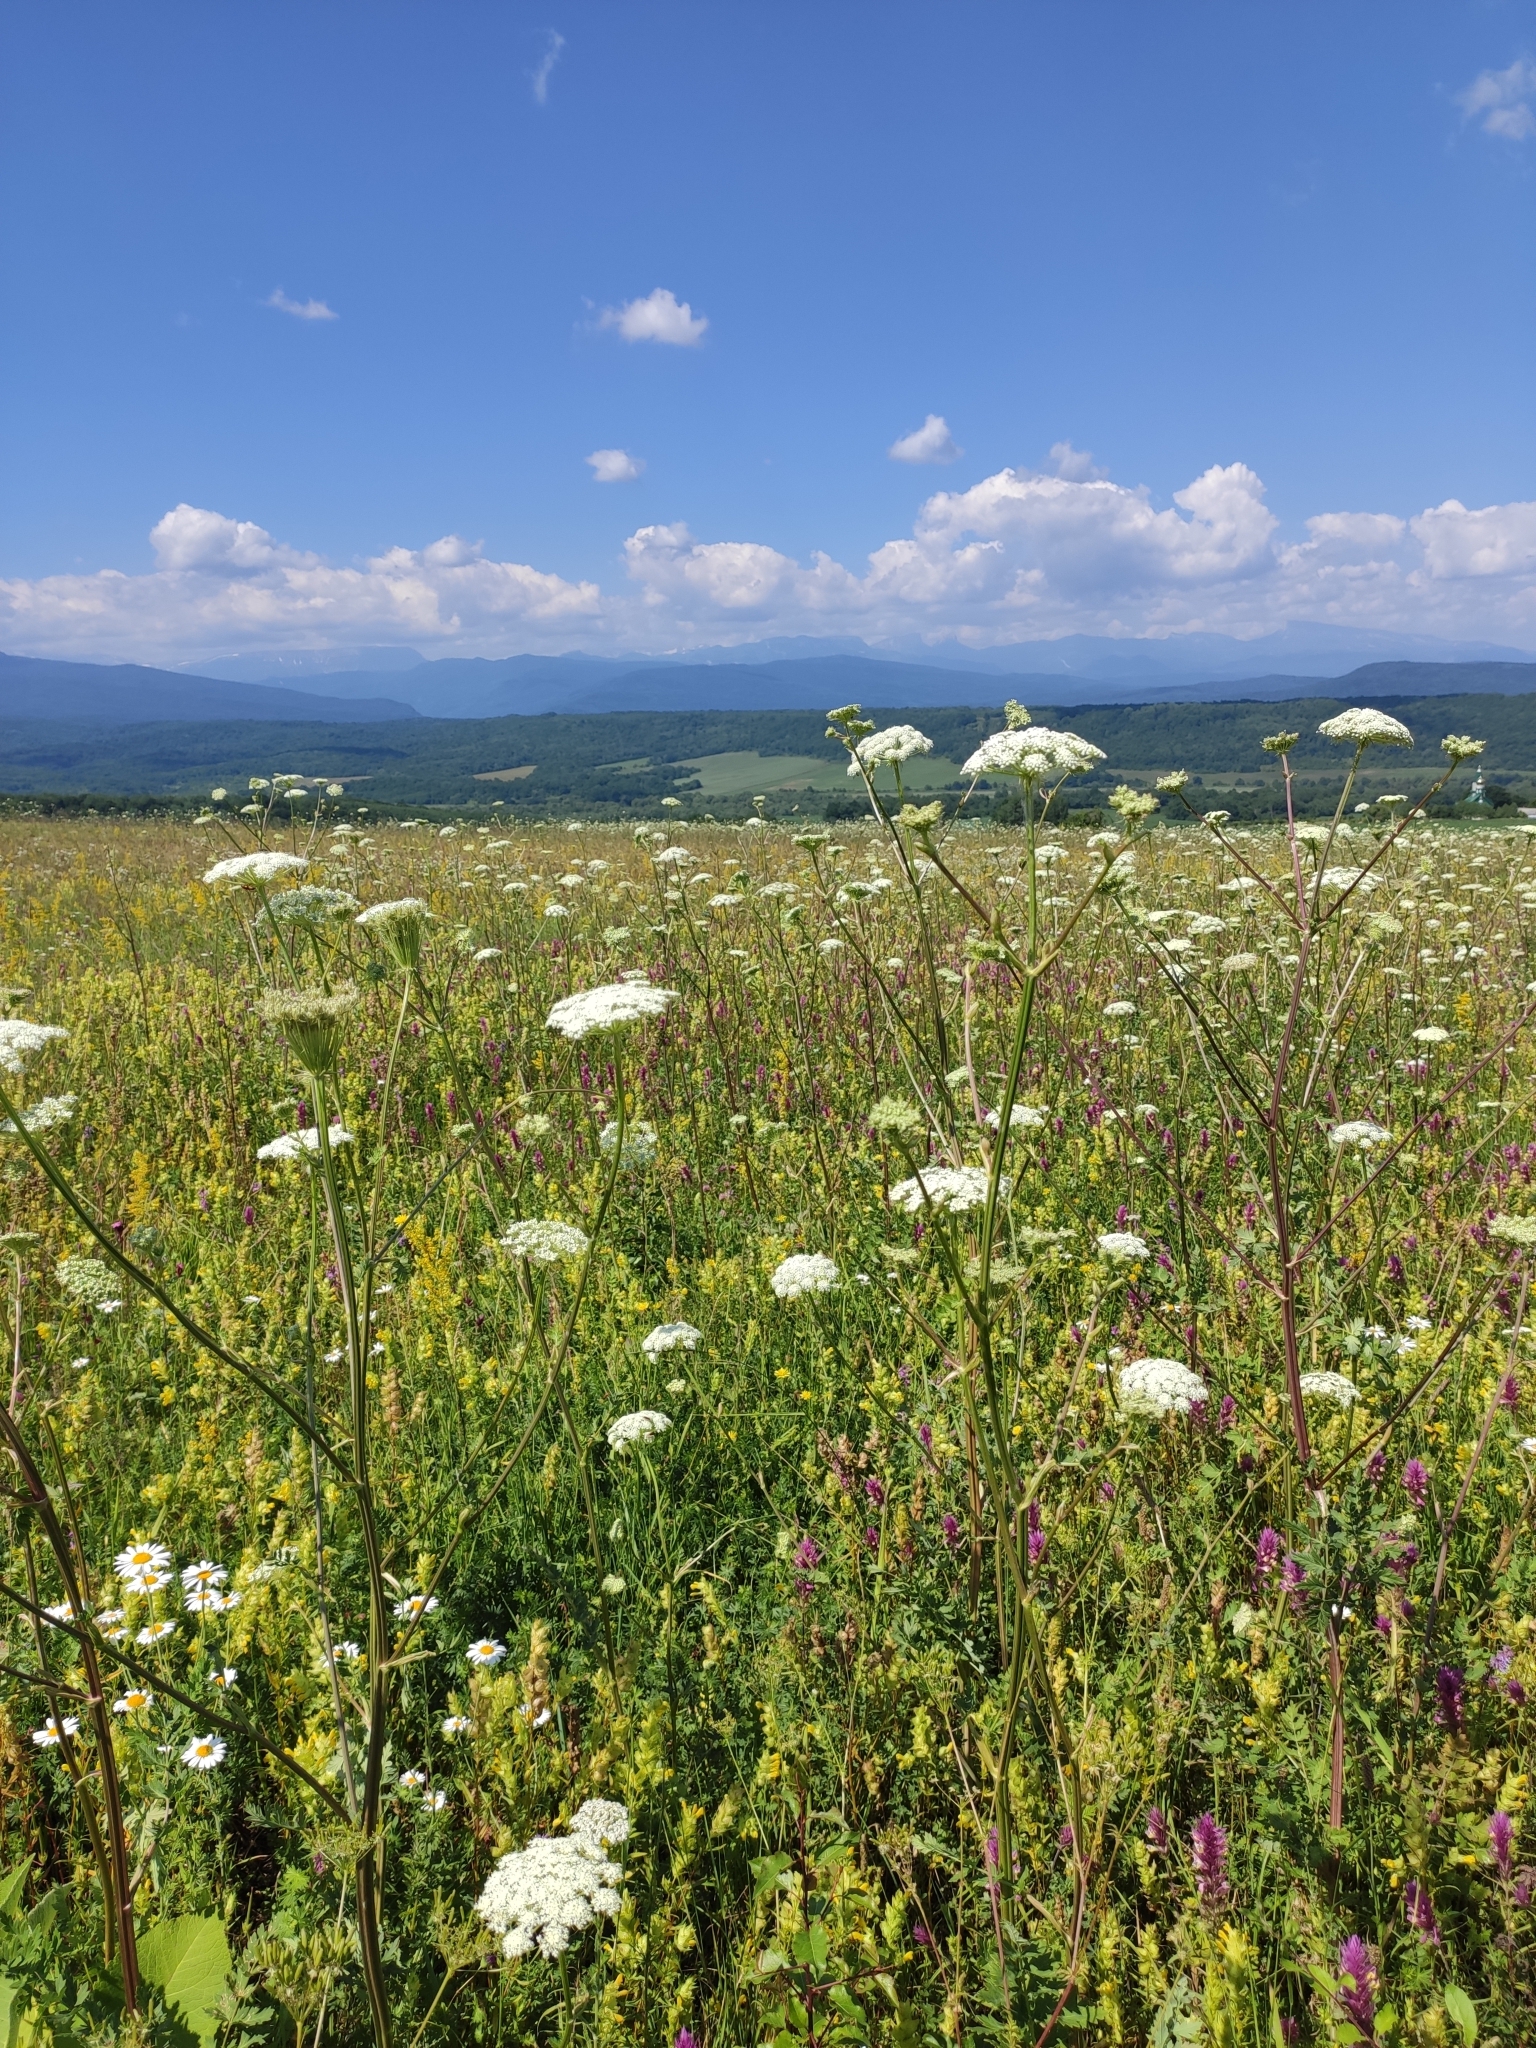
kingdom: Plantae
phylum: Tracheophyta
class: Magnoliopsida
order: Apiales
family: Apiaceae
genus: Seseli
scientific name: Seseli libanotis
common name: Mooncarrot
